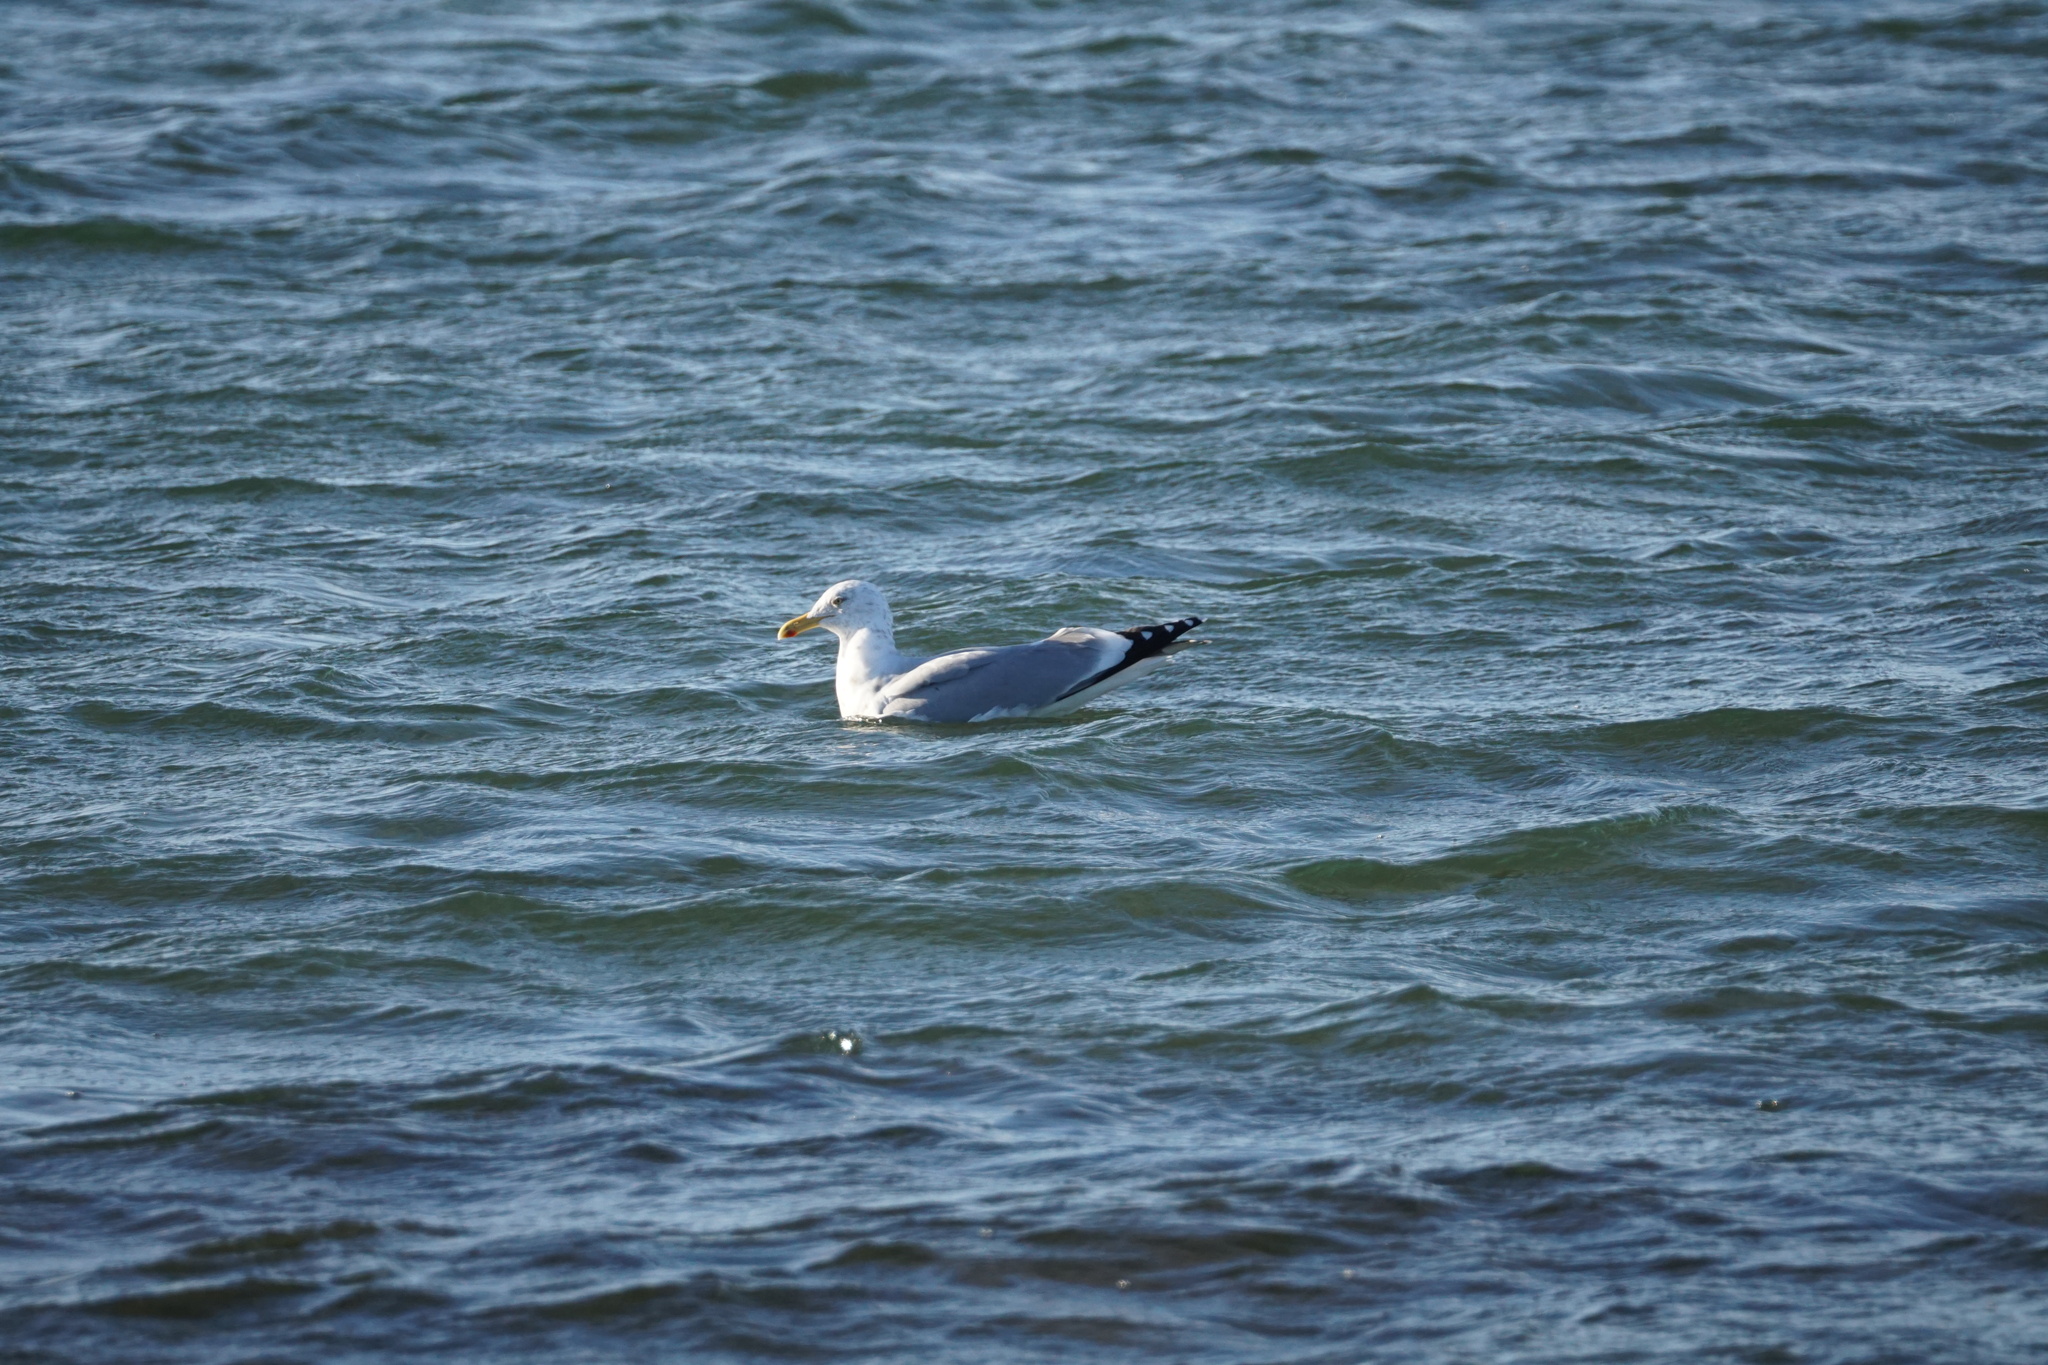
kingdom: Animalia
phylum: Chordata
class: Aves
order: Charadriiformes
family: Laridae
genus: Larus
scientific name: Larus argentatus
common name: Herring gull
